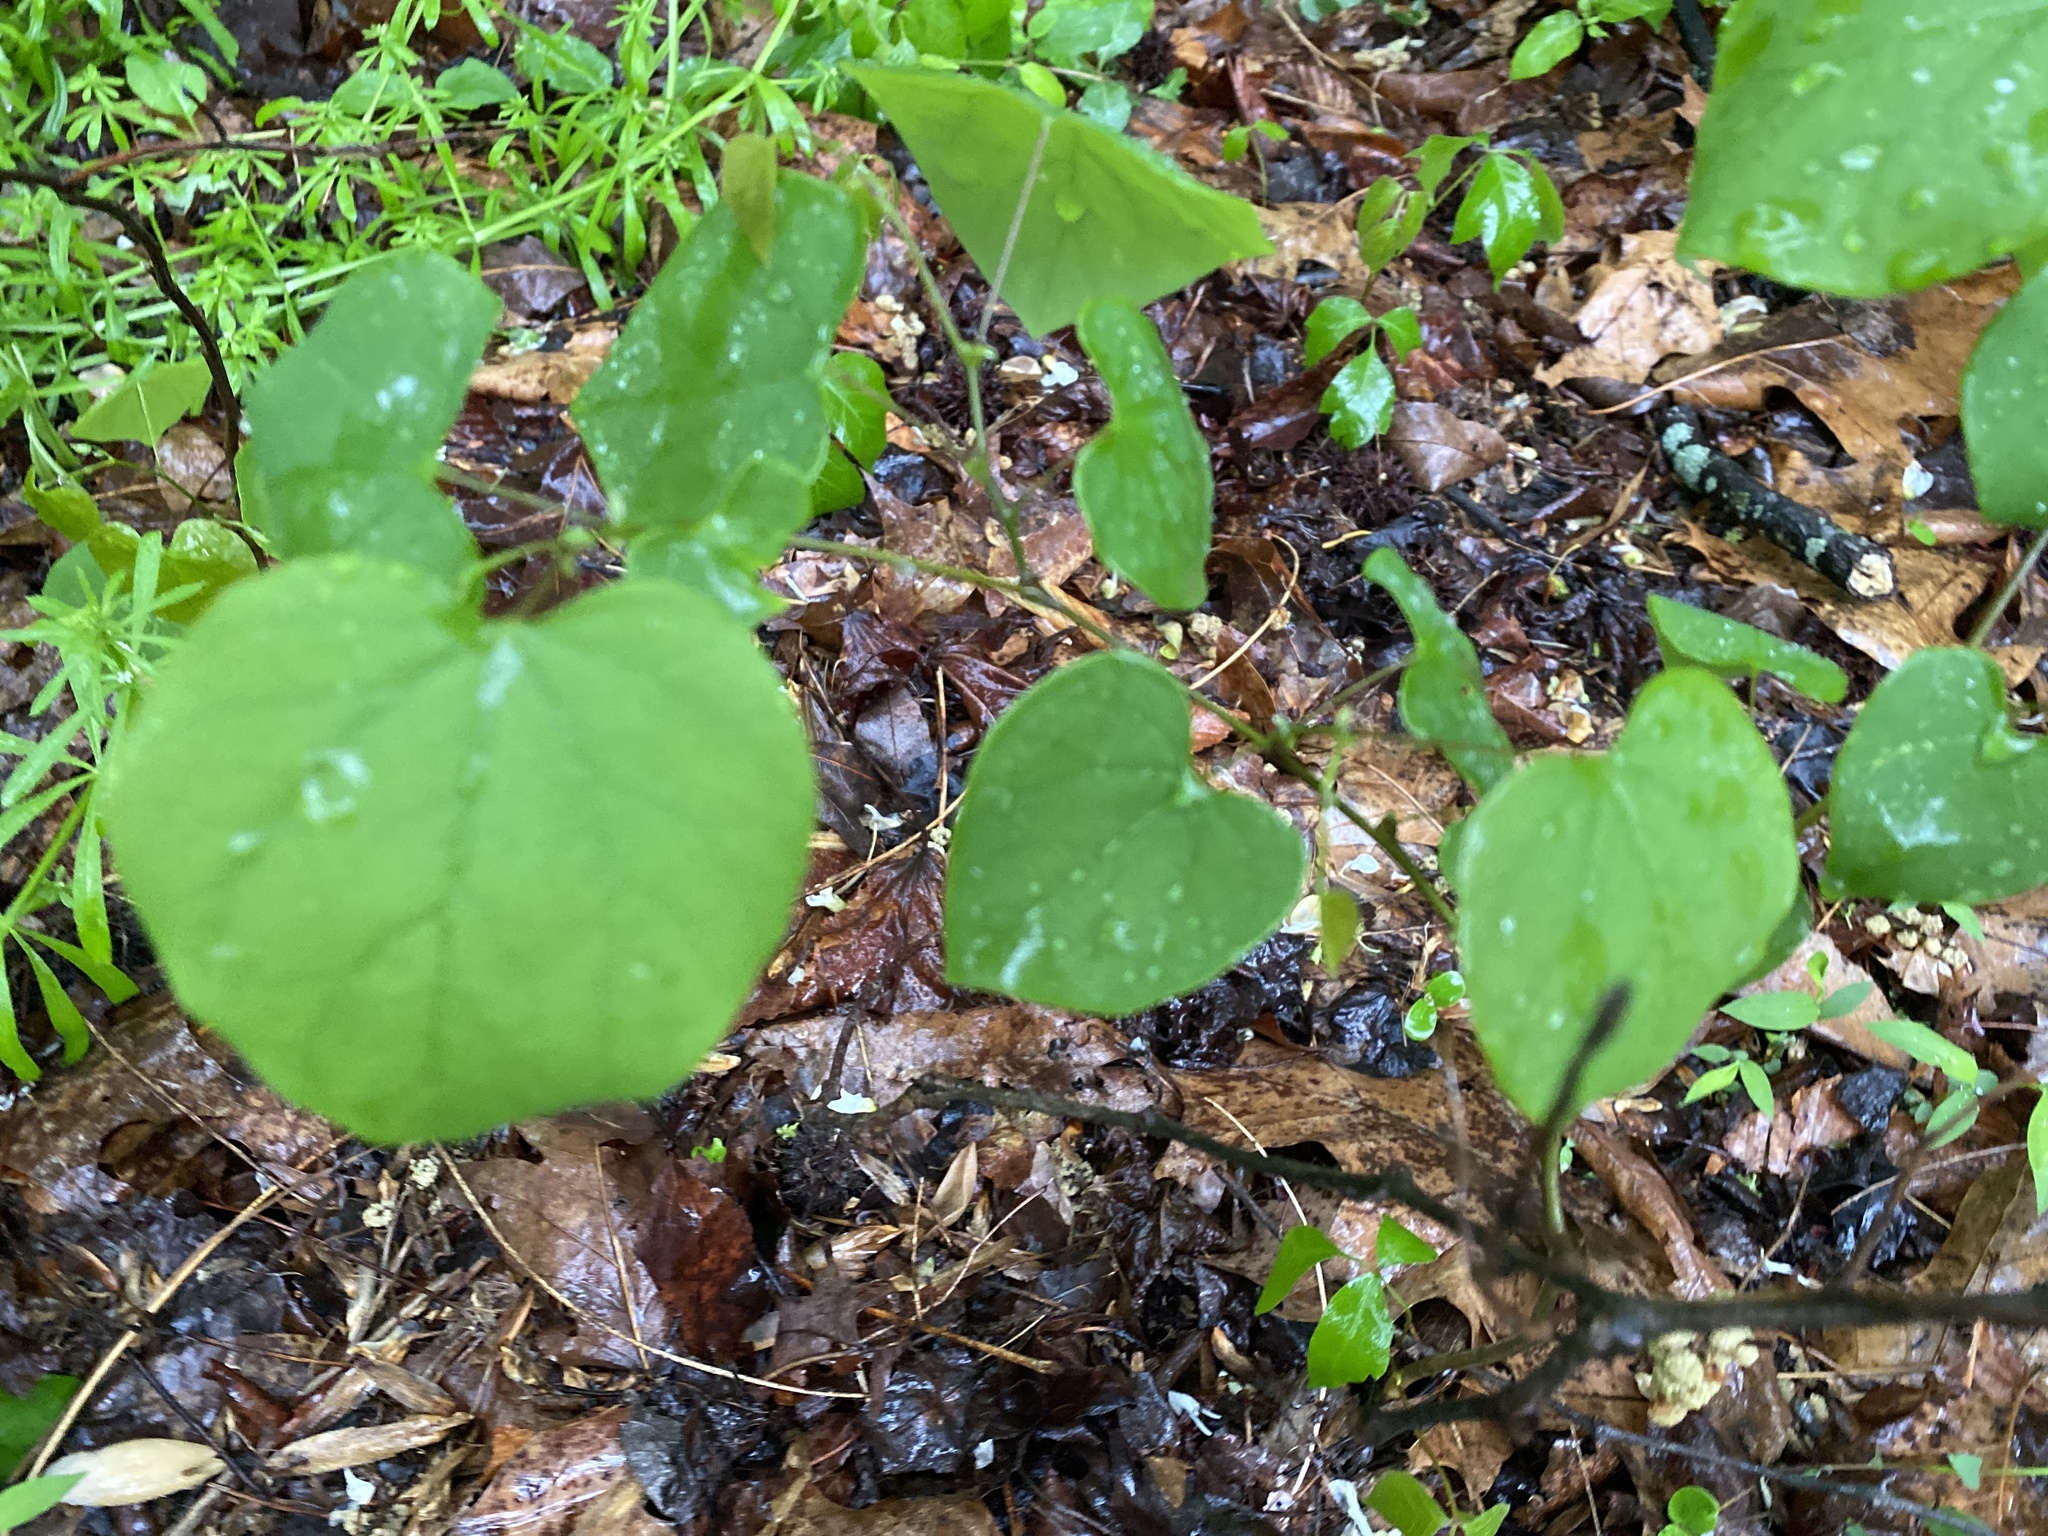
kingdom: Plantae
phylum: Tracheophyta
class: Magnoliopsida
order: Fabales
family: Fabaceae
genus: Cercis
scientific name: Cercis canadensis
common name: Eastern redbud
